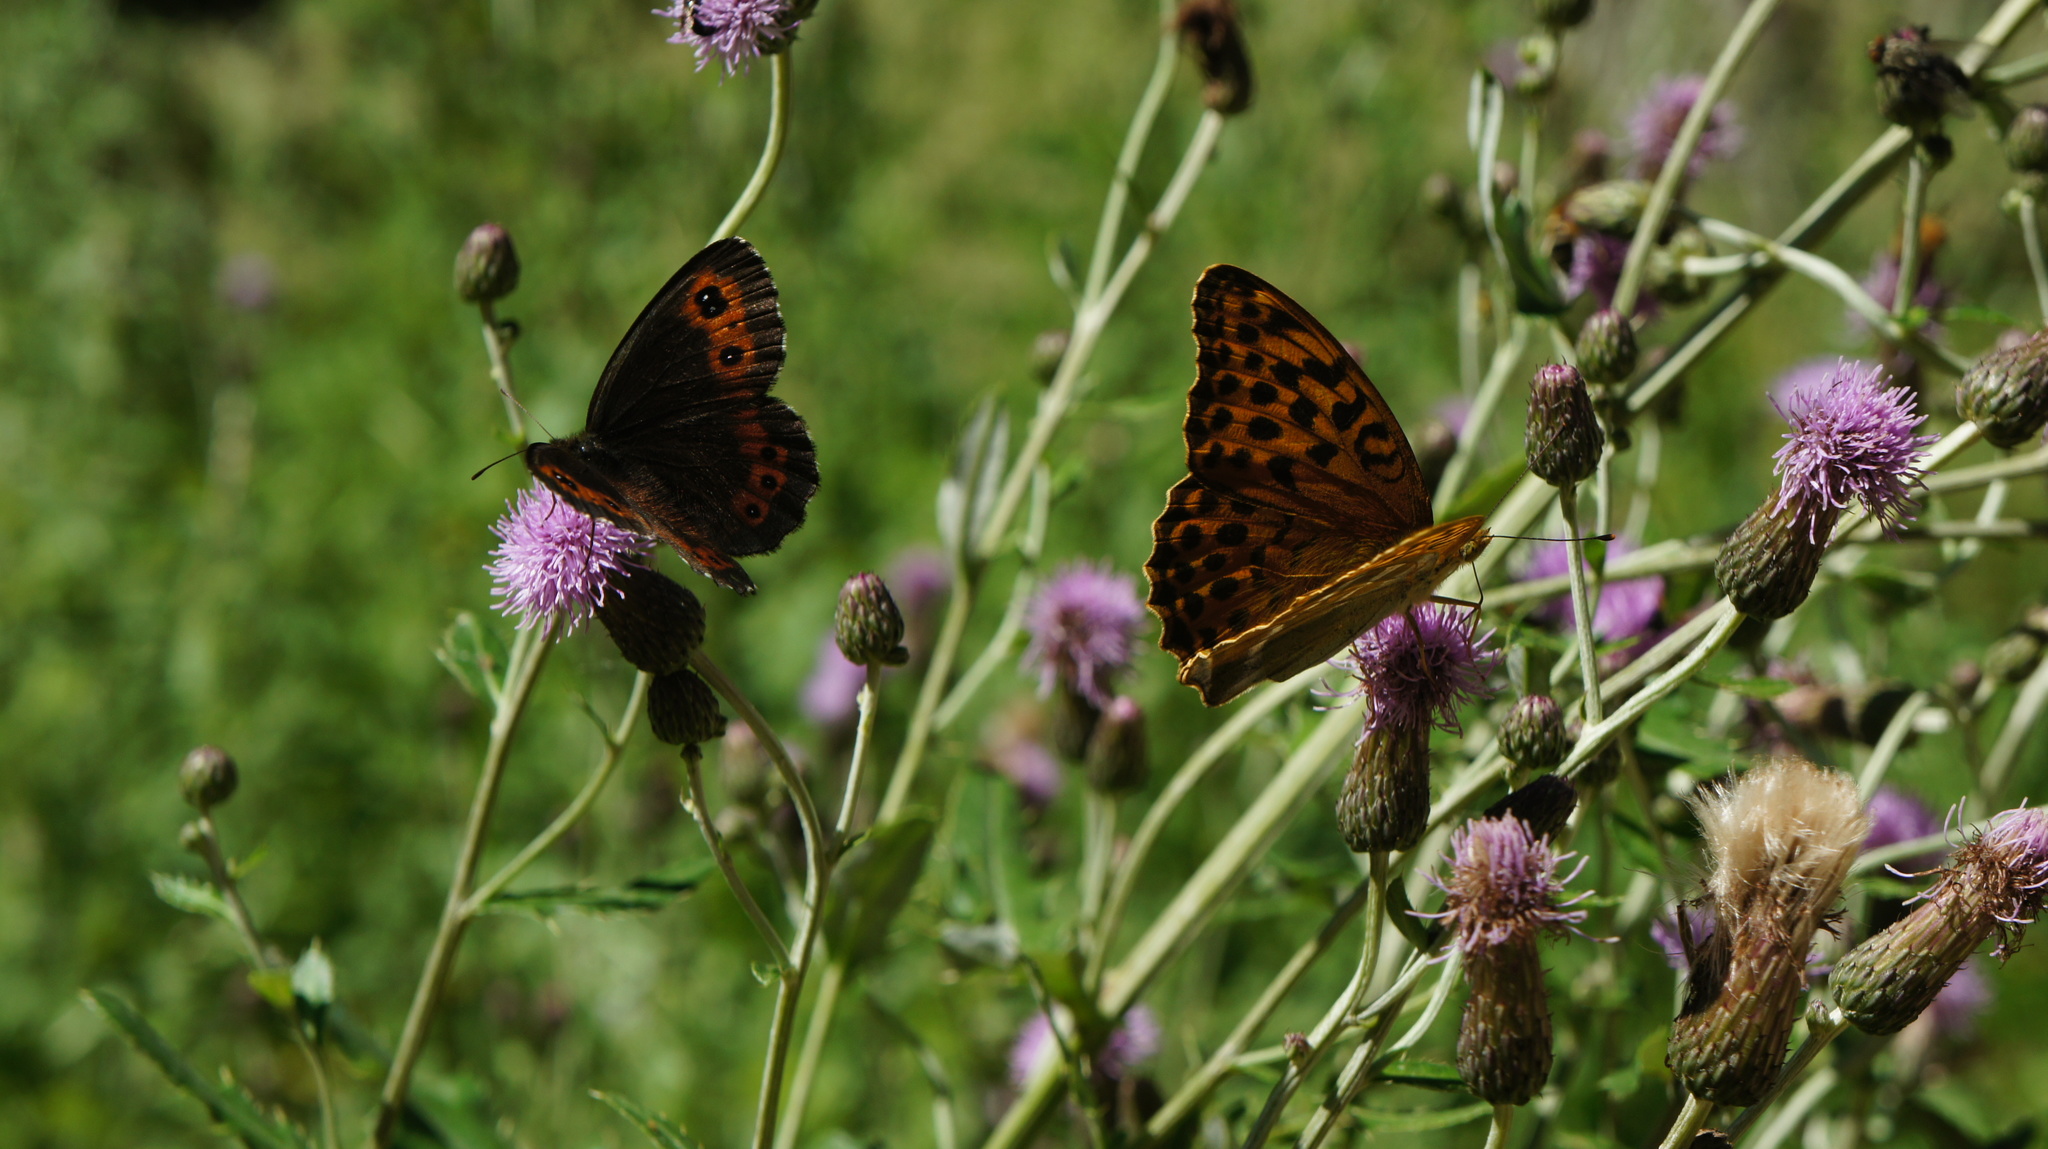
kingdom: Animalia
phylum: Arthropoda
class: Insecta
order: Lepidoptera
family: Nymphalidae
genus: Argynnis
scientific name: Argynnis paphia
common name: Silver-washed fritillary
